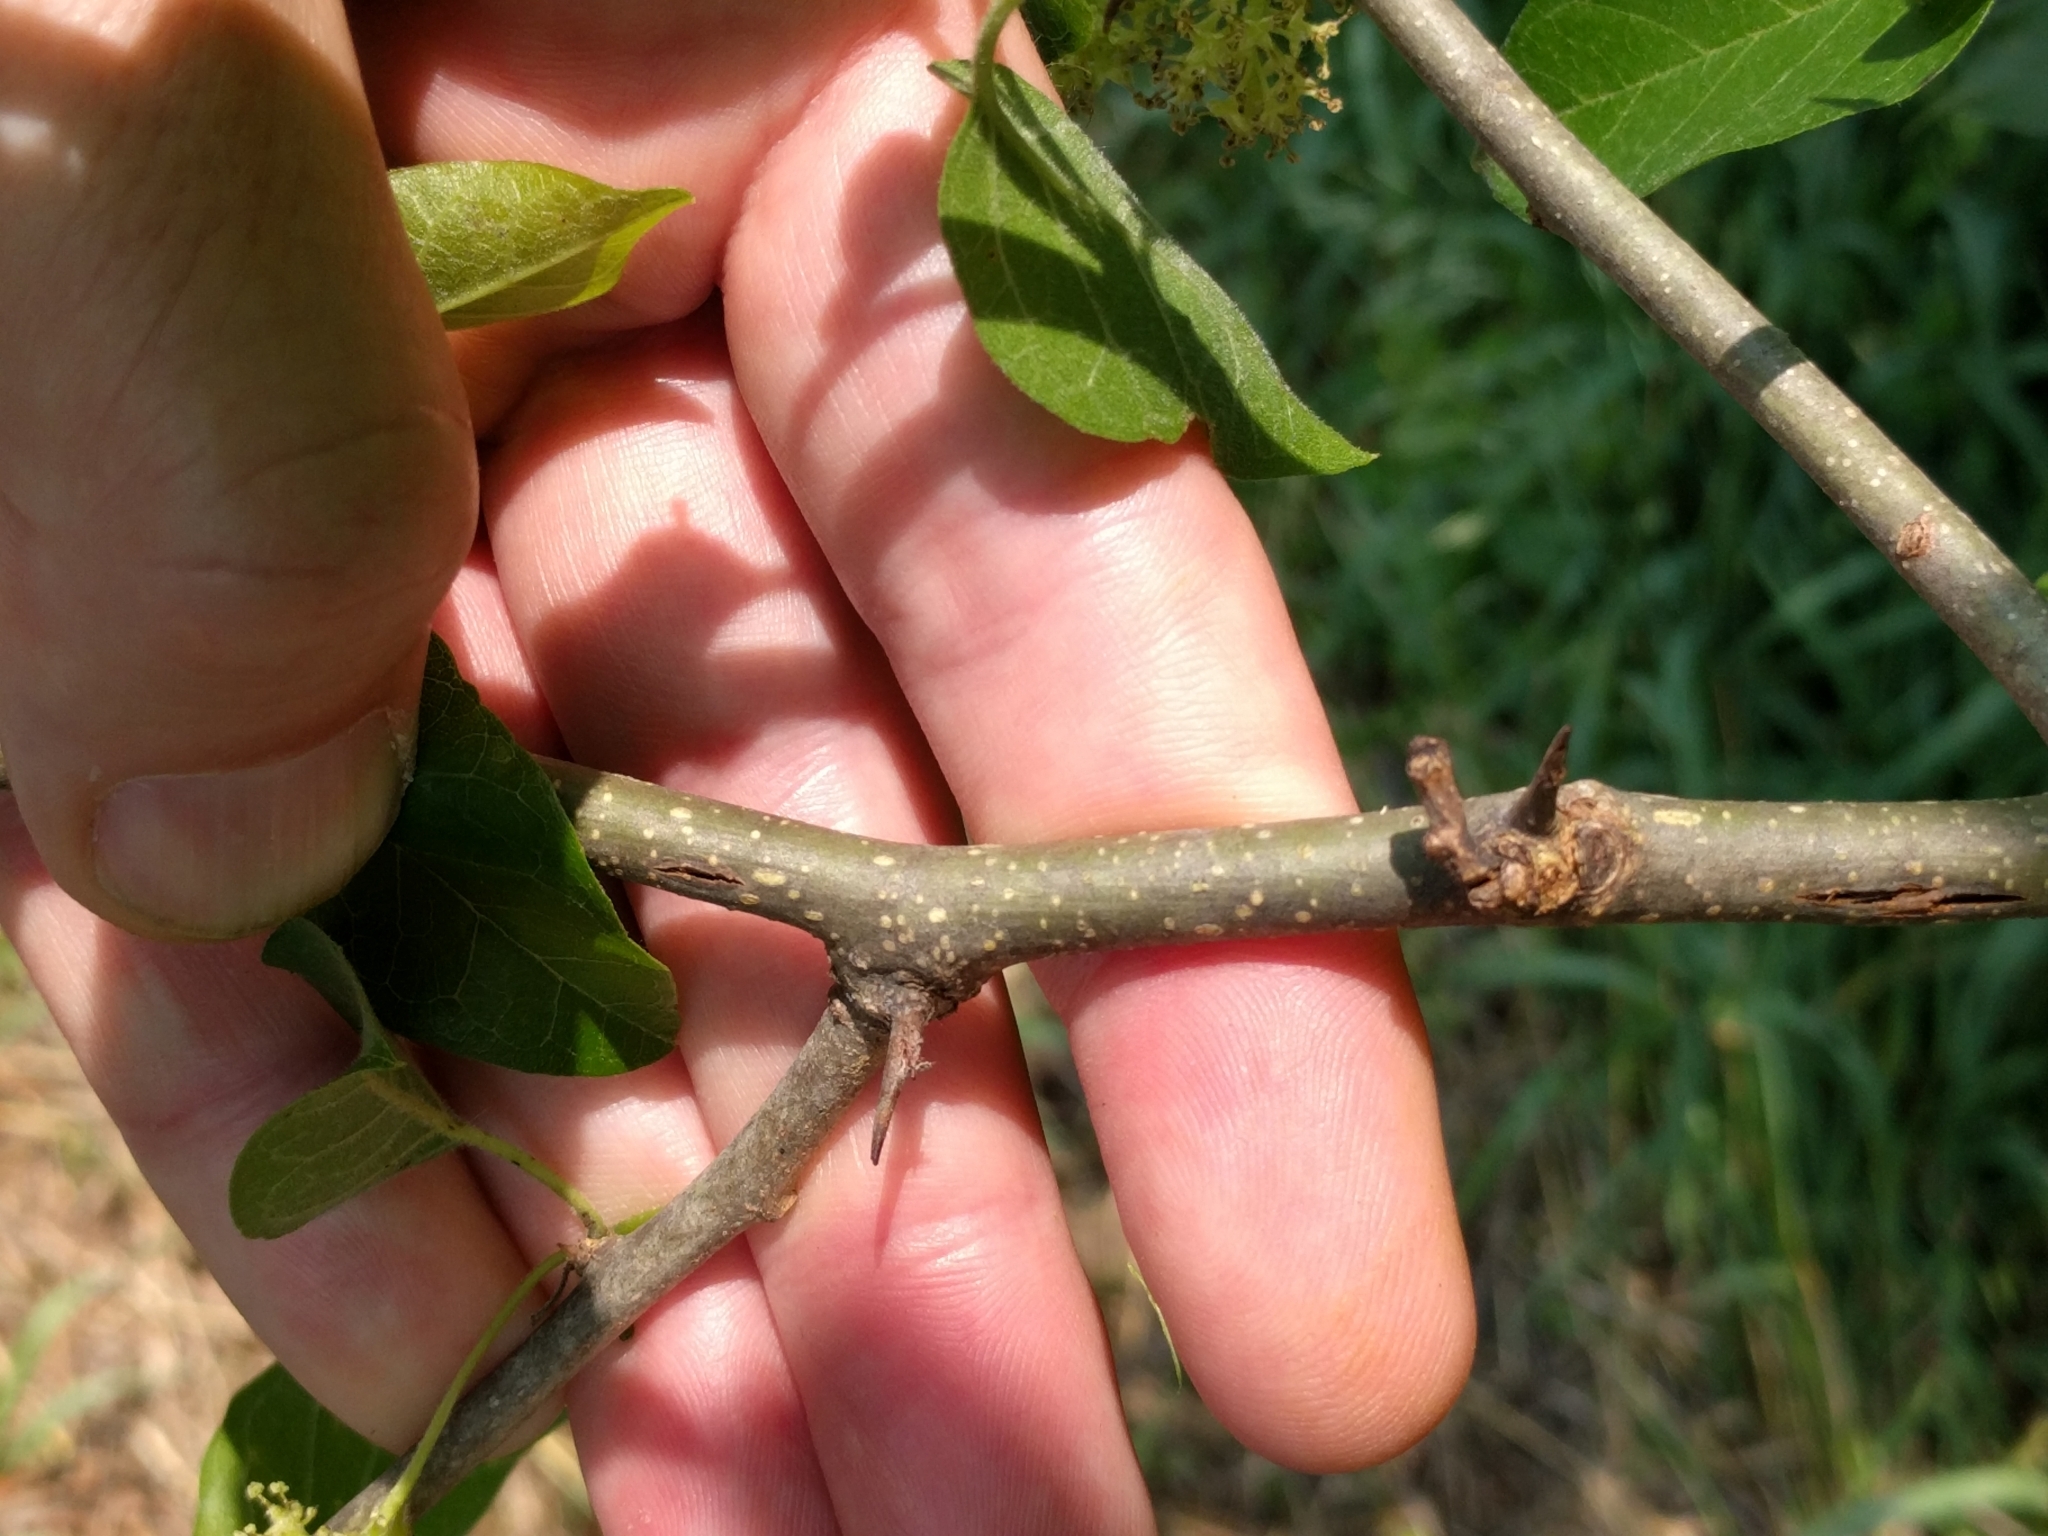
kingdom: Plantae
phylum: Tracheophyta
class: Magnoliopsida
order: Rosales
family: Moraceae
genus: Maclura
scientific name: Maclura pomifera
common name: Osage-orange
